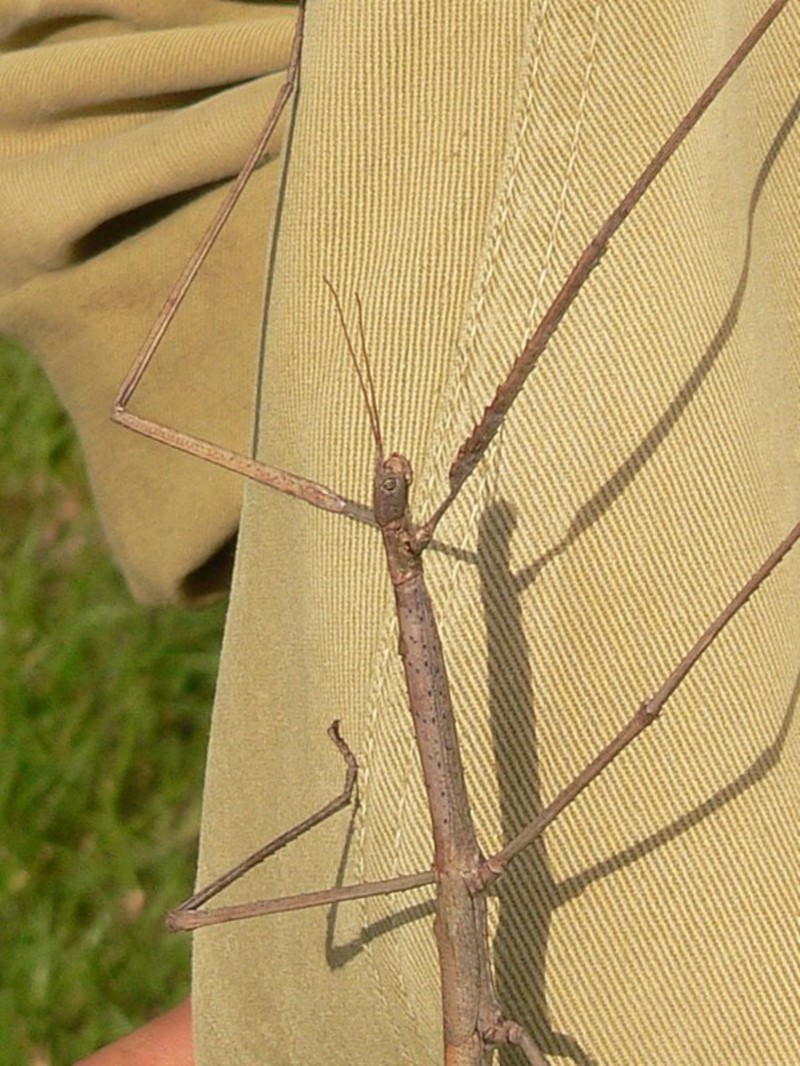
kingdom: Animalia
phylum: Arthropoda
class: Insecta
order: Phasmida
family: Phasmatidae
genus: Ctenomorpha
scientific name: Ctenomorpha marginipennis
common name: Margined-winged stick-insect
